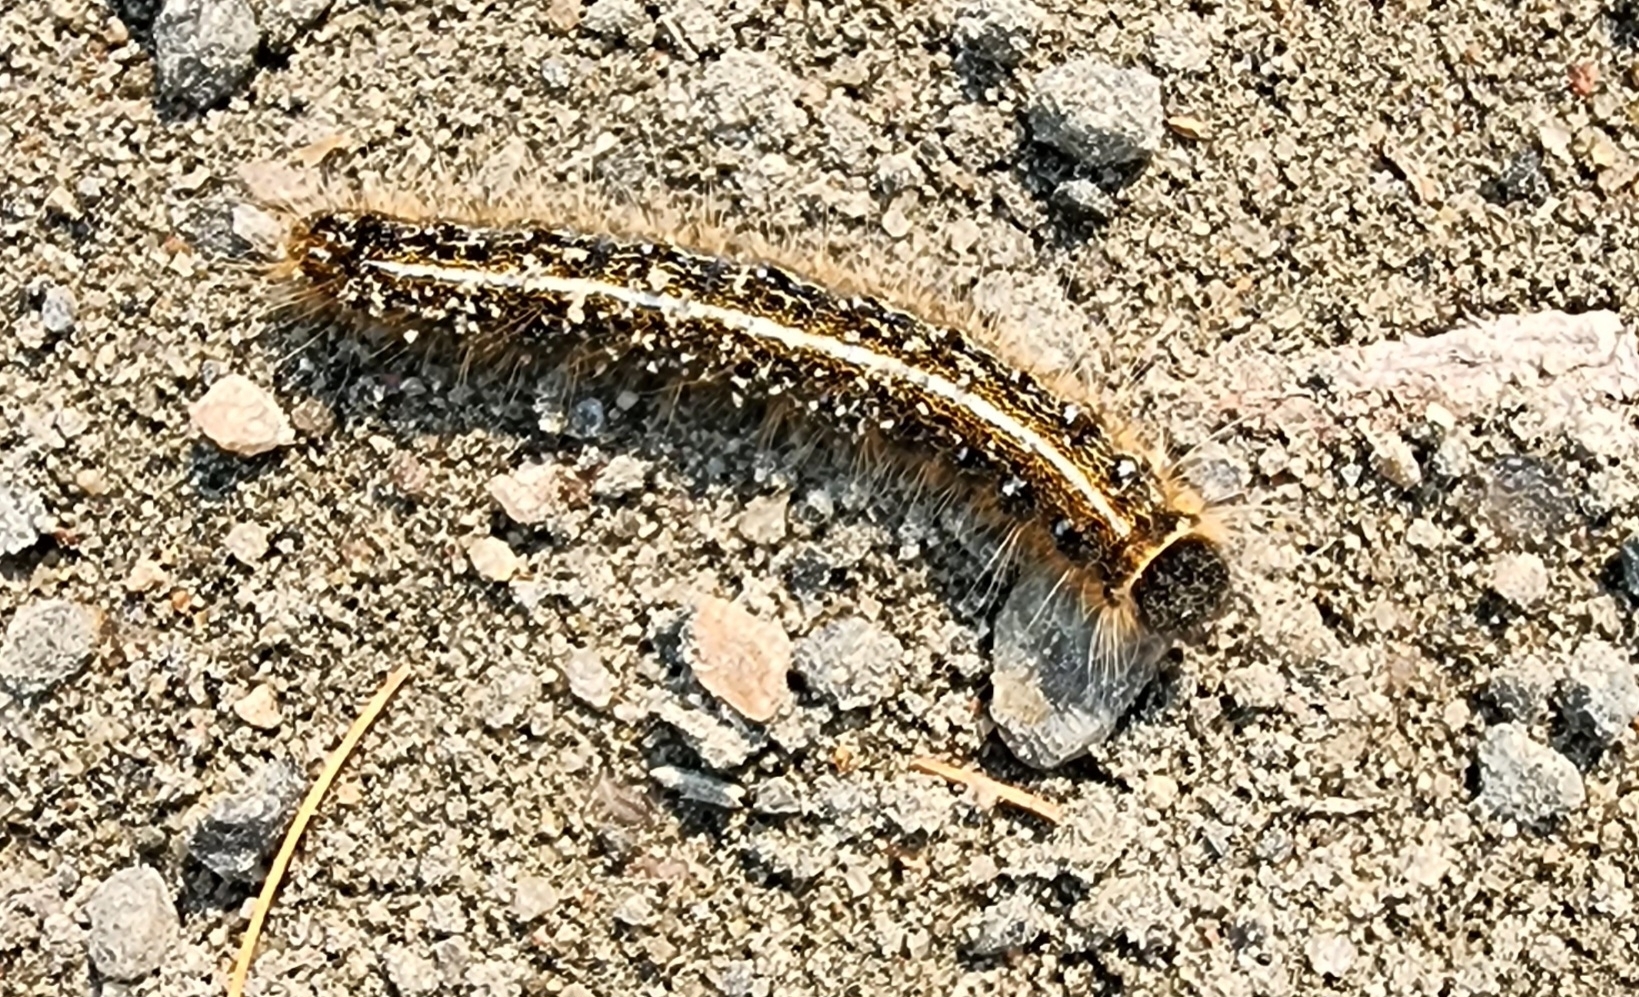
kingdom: Animalia
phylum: Arthropoda
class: Insecta
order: Lepidoptera
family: Lasiocampidae
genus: Malacosoma
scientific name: Malacosoma americana
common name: Eastern tent caterpillar moth
